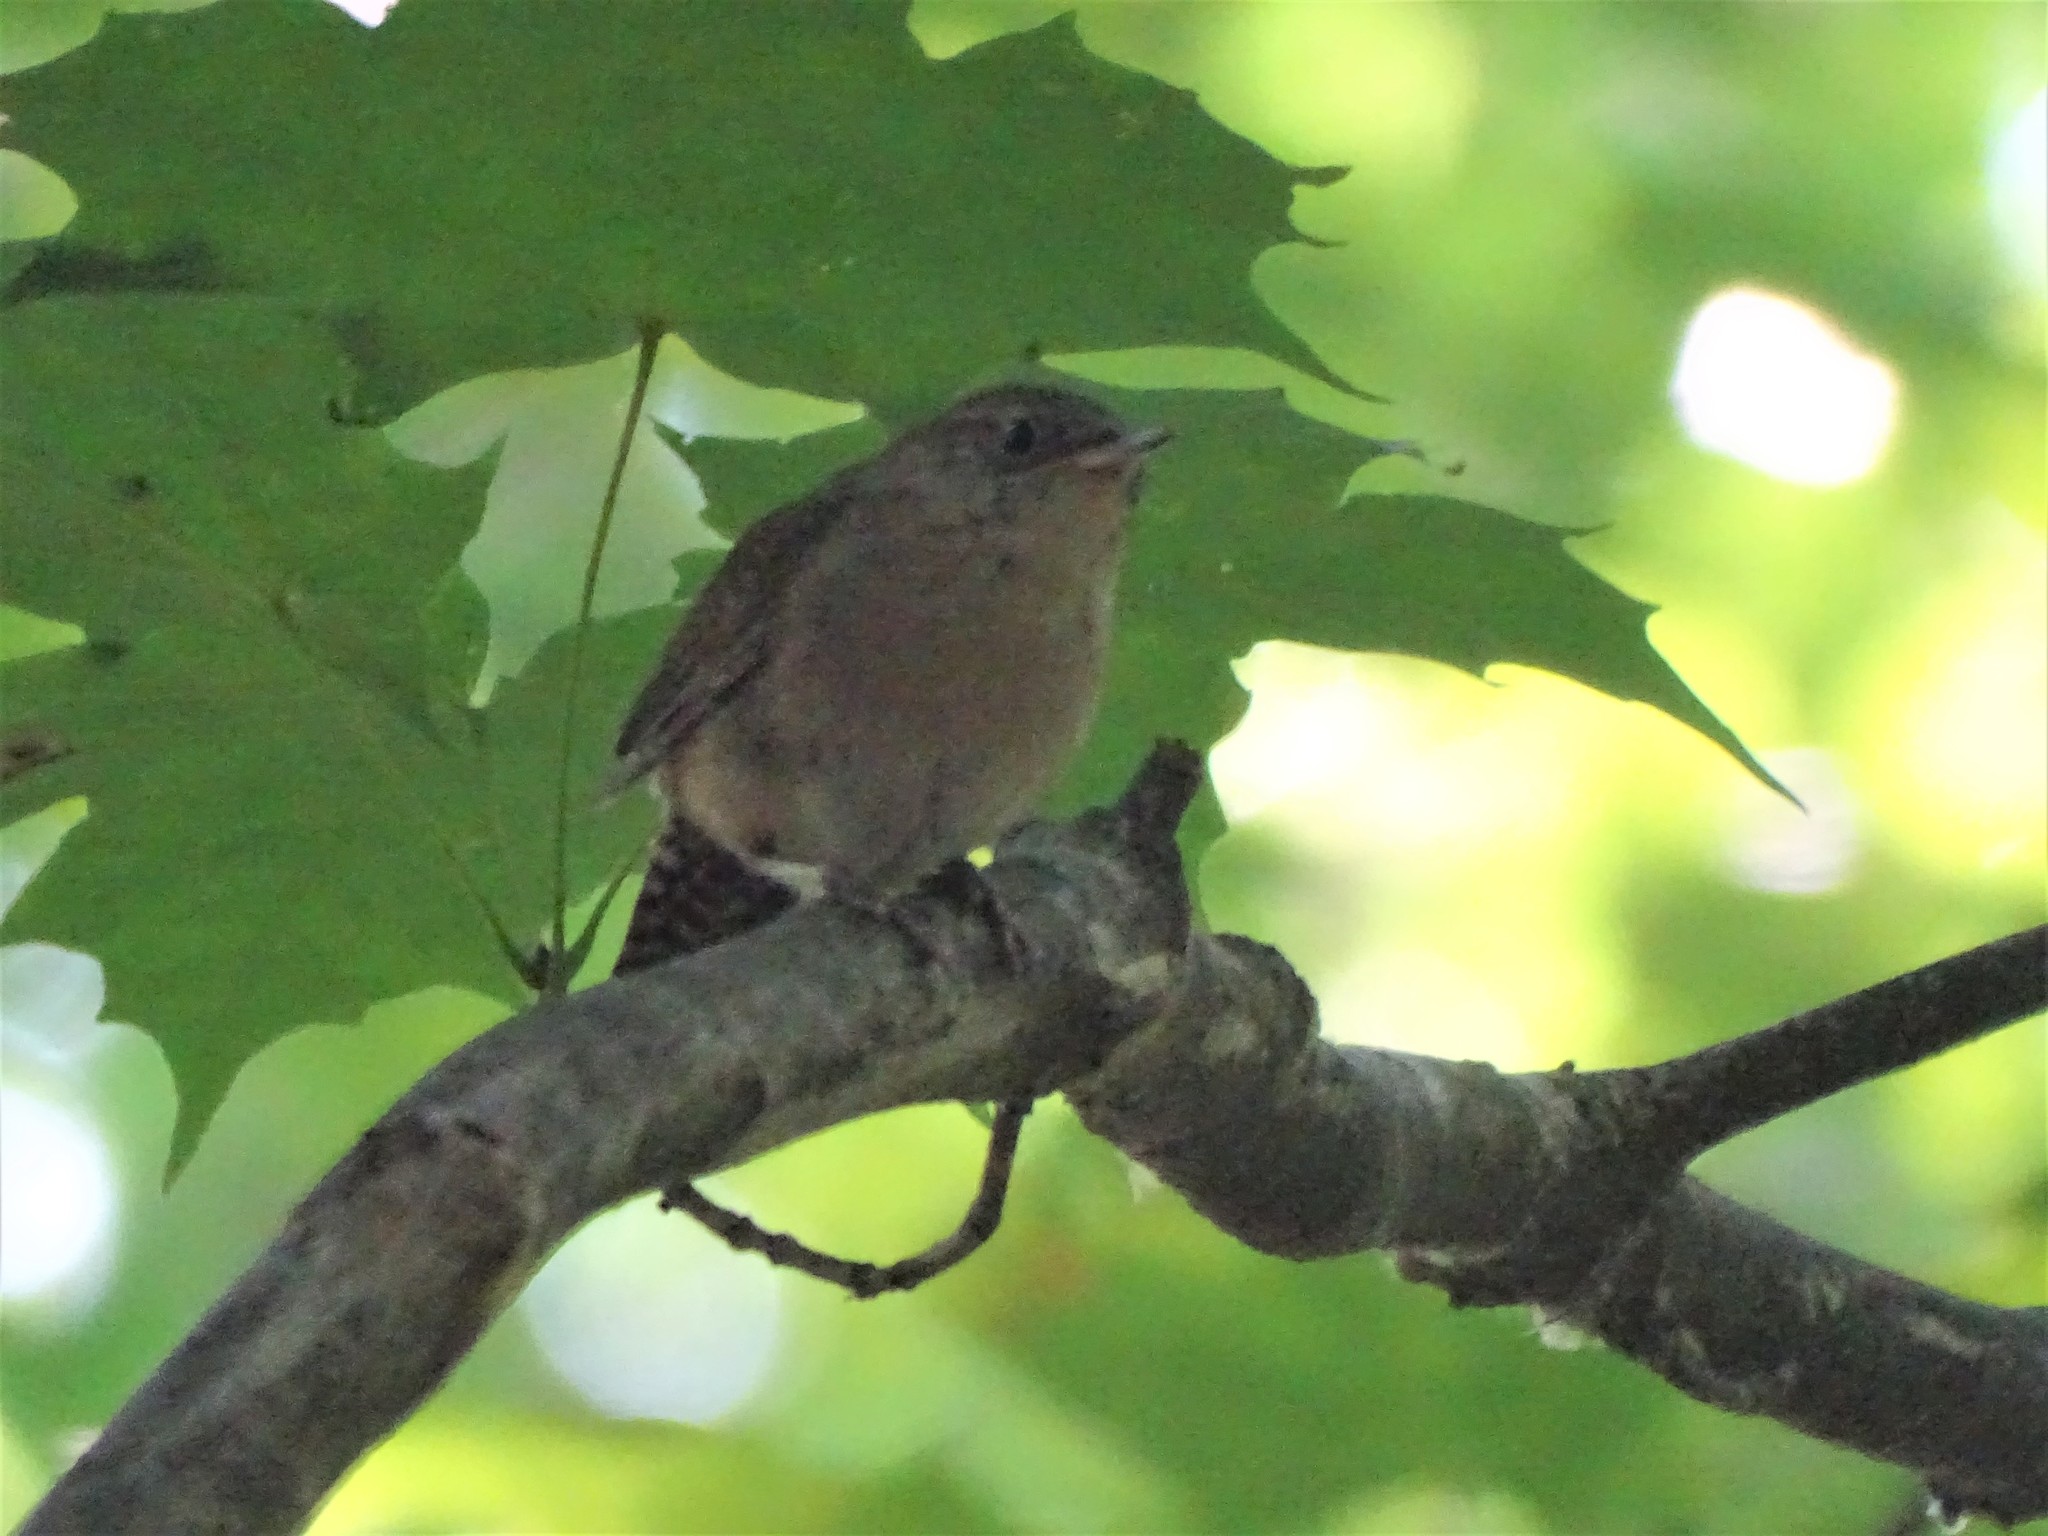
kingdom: Animalia
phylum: Chordata
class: Aves
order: Passeriformes
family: Troglodytidae
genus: Troglodytes
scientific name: Troglodytes aedon
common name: House wren
